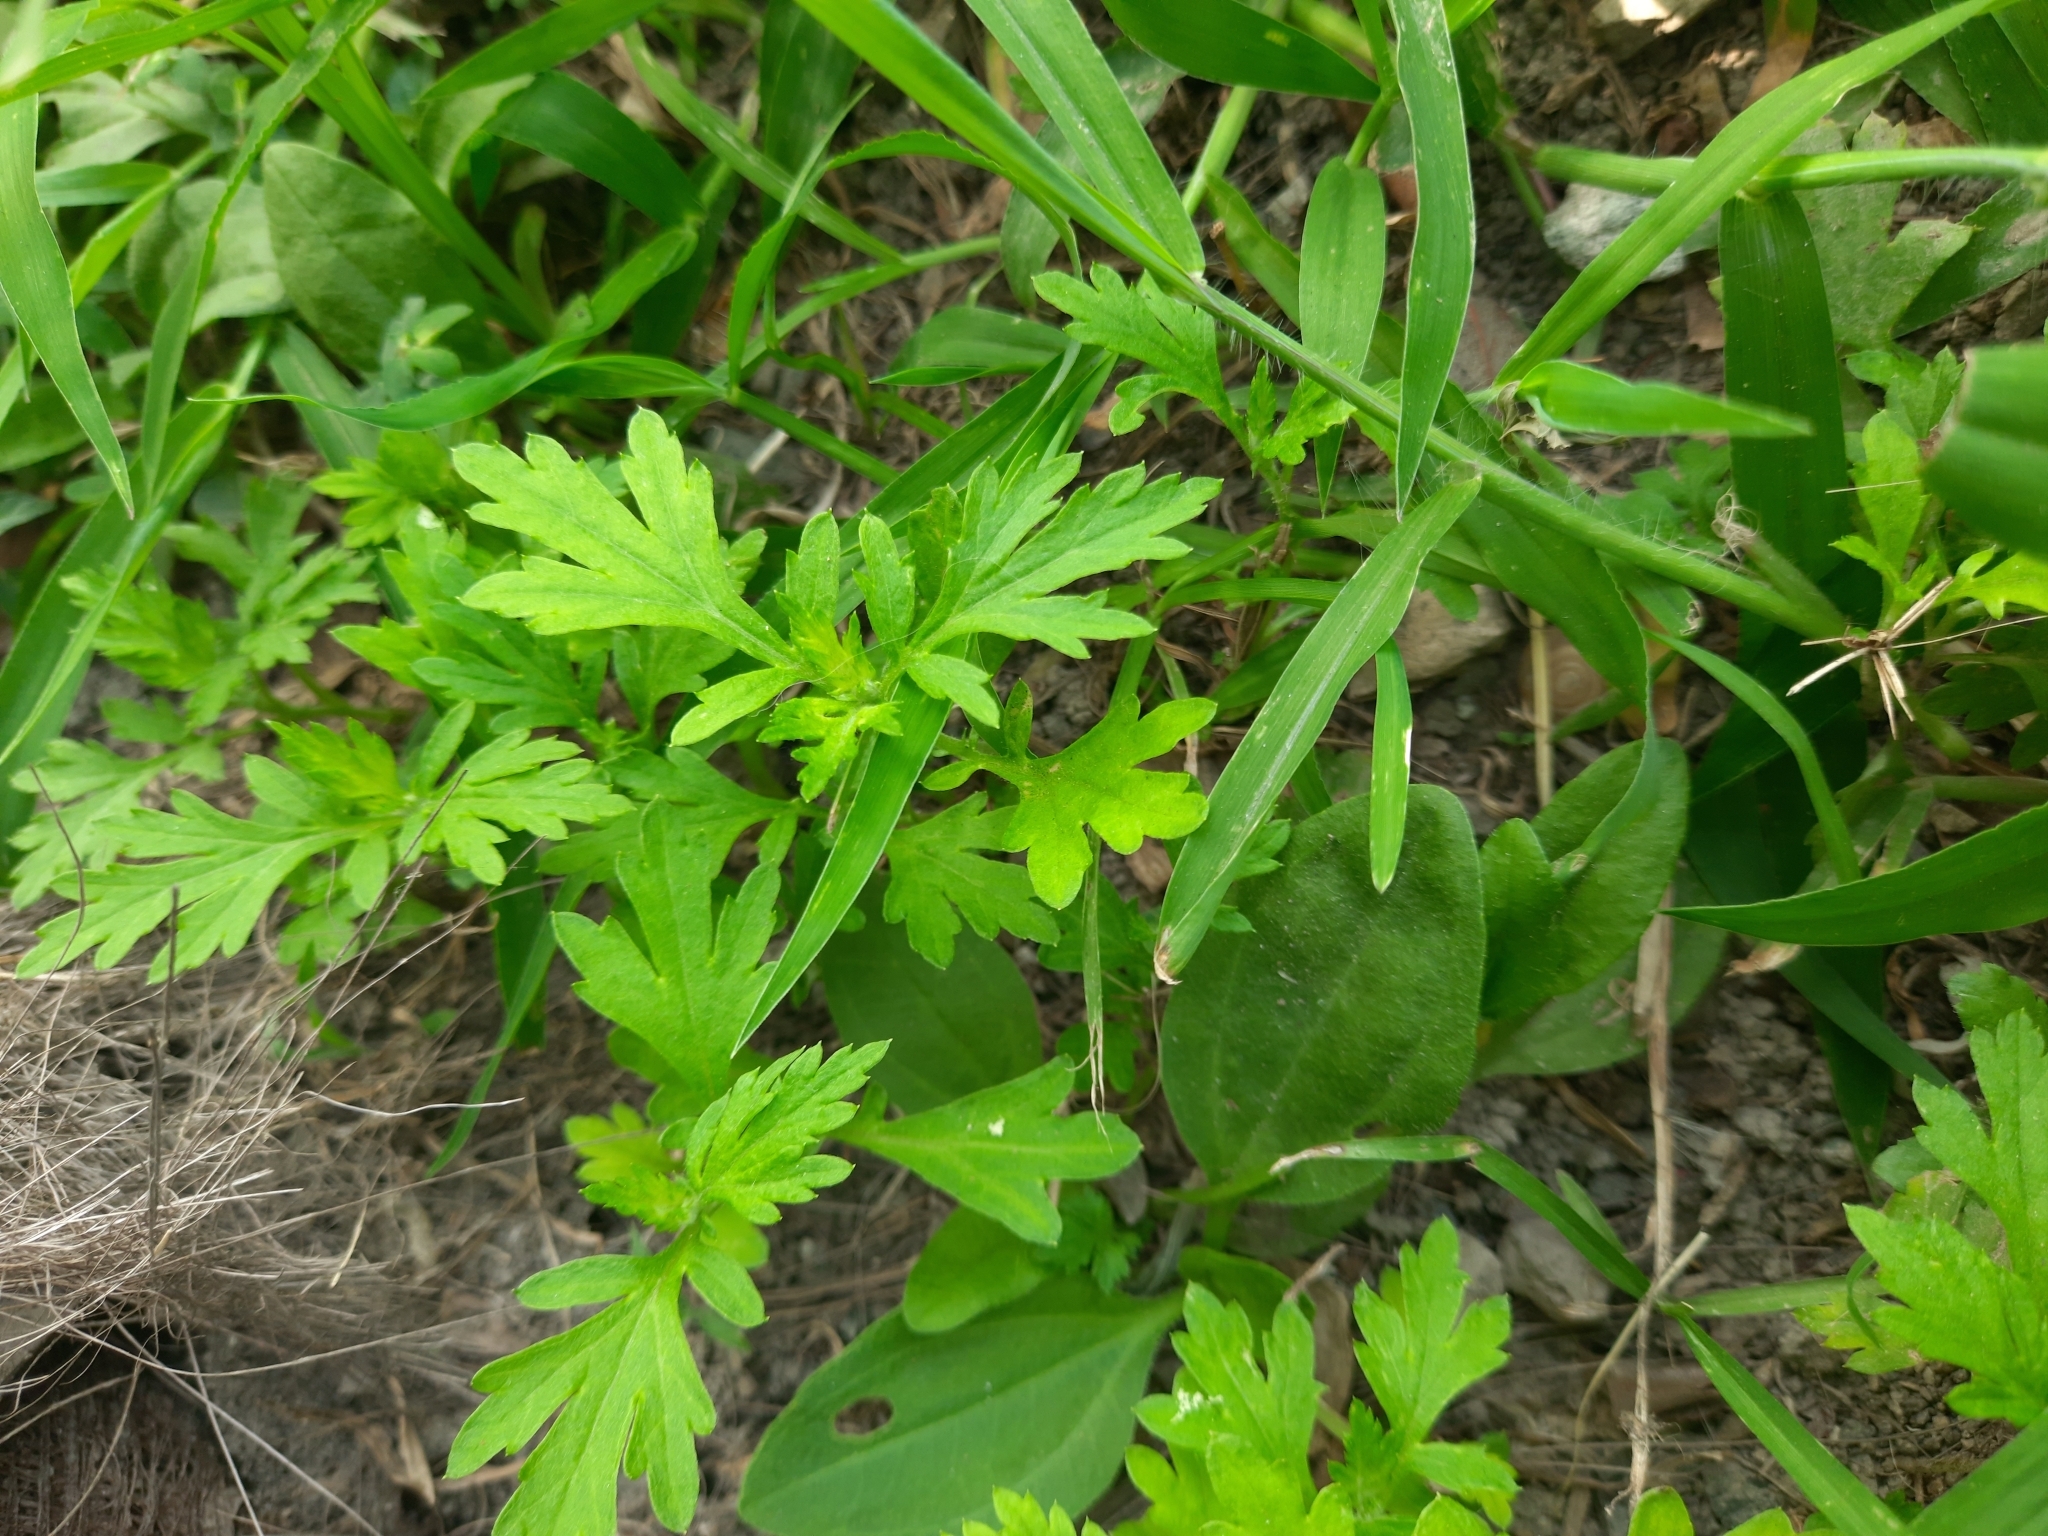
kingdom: Plantae
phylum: Tracheophyta
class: Magnoliopsida
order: Asterales
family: Asteraceae
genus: Artemisia
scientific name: Artemisia vulgaris
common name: Mugwort
